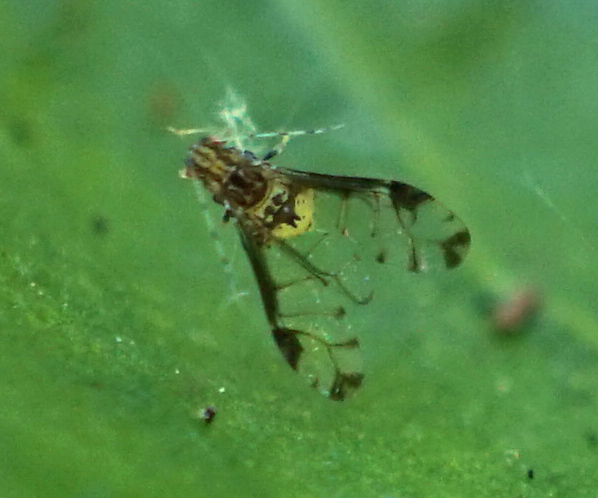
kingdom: Animalia
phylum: Arthropoda
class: Insecta
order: Hemiptera
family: Aphididae
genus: Sarucallis
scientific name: Sarucallis kahawaluokalani
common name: Crapemyrtle aphid
